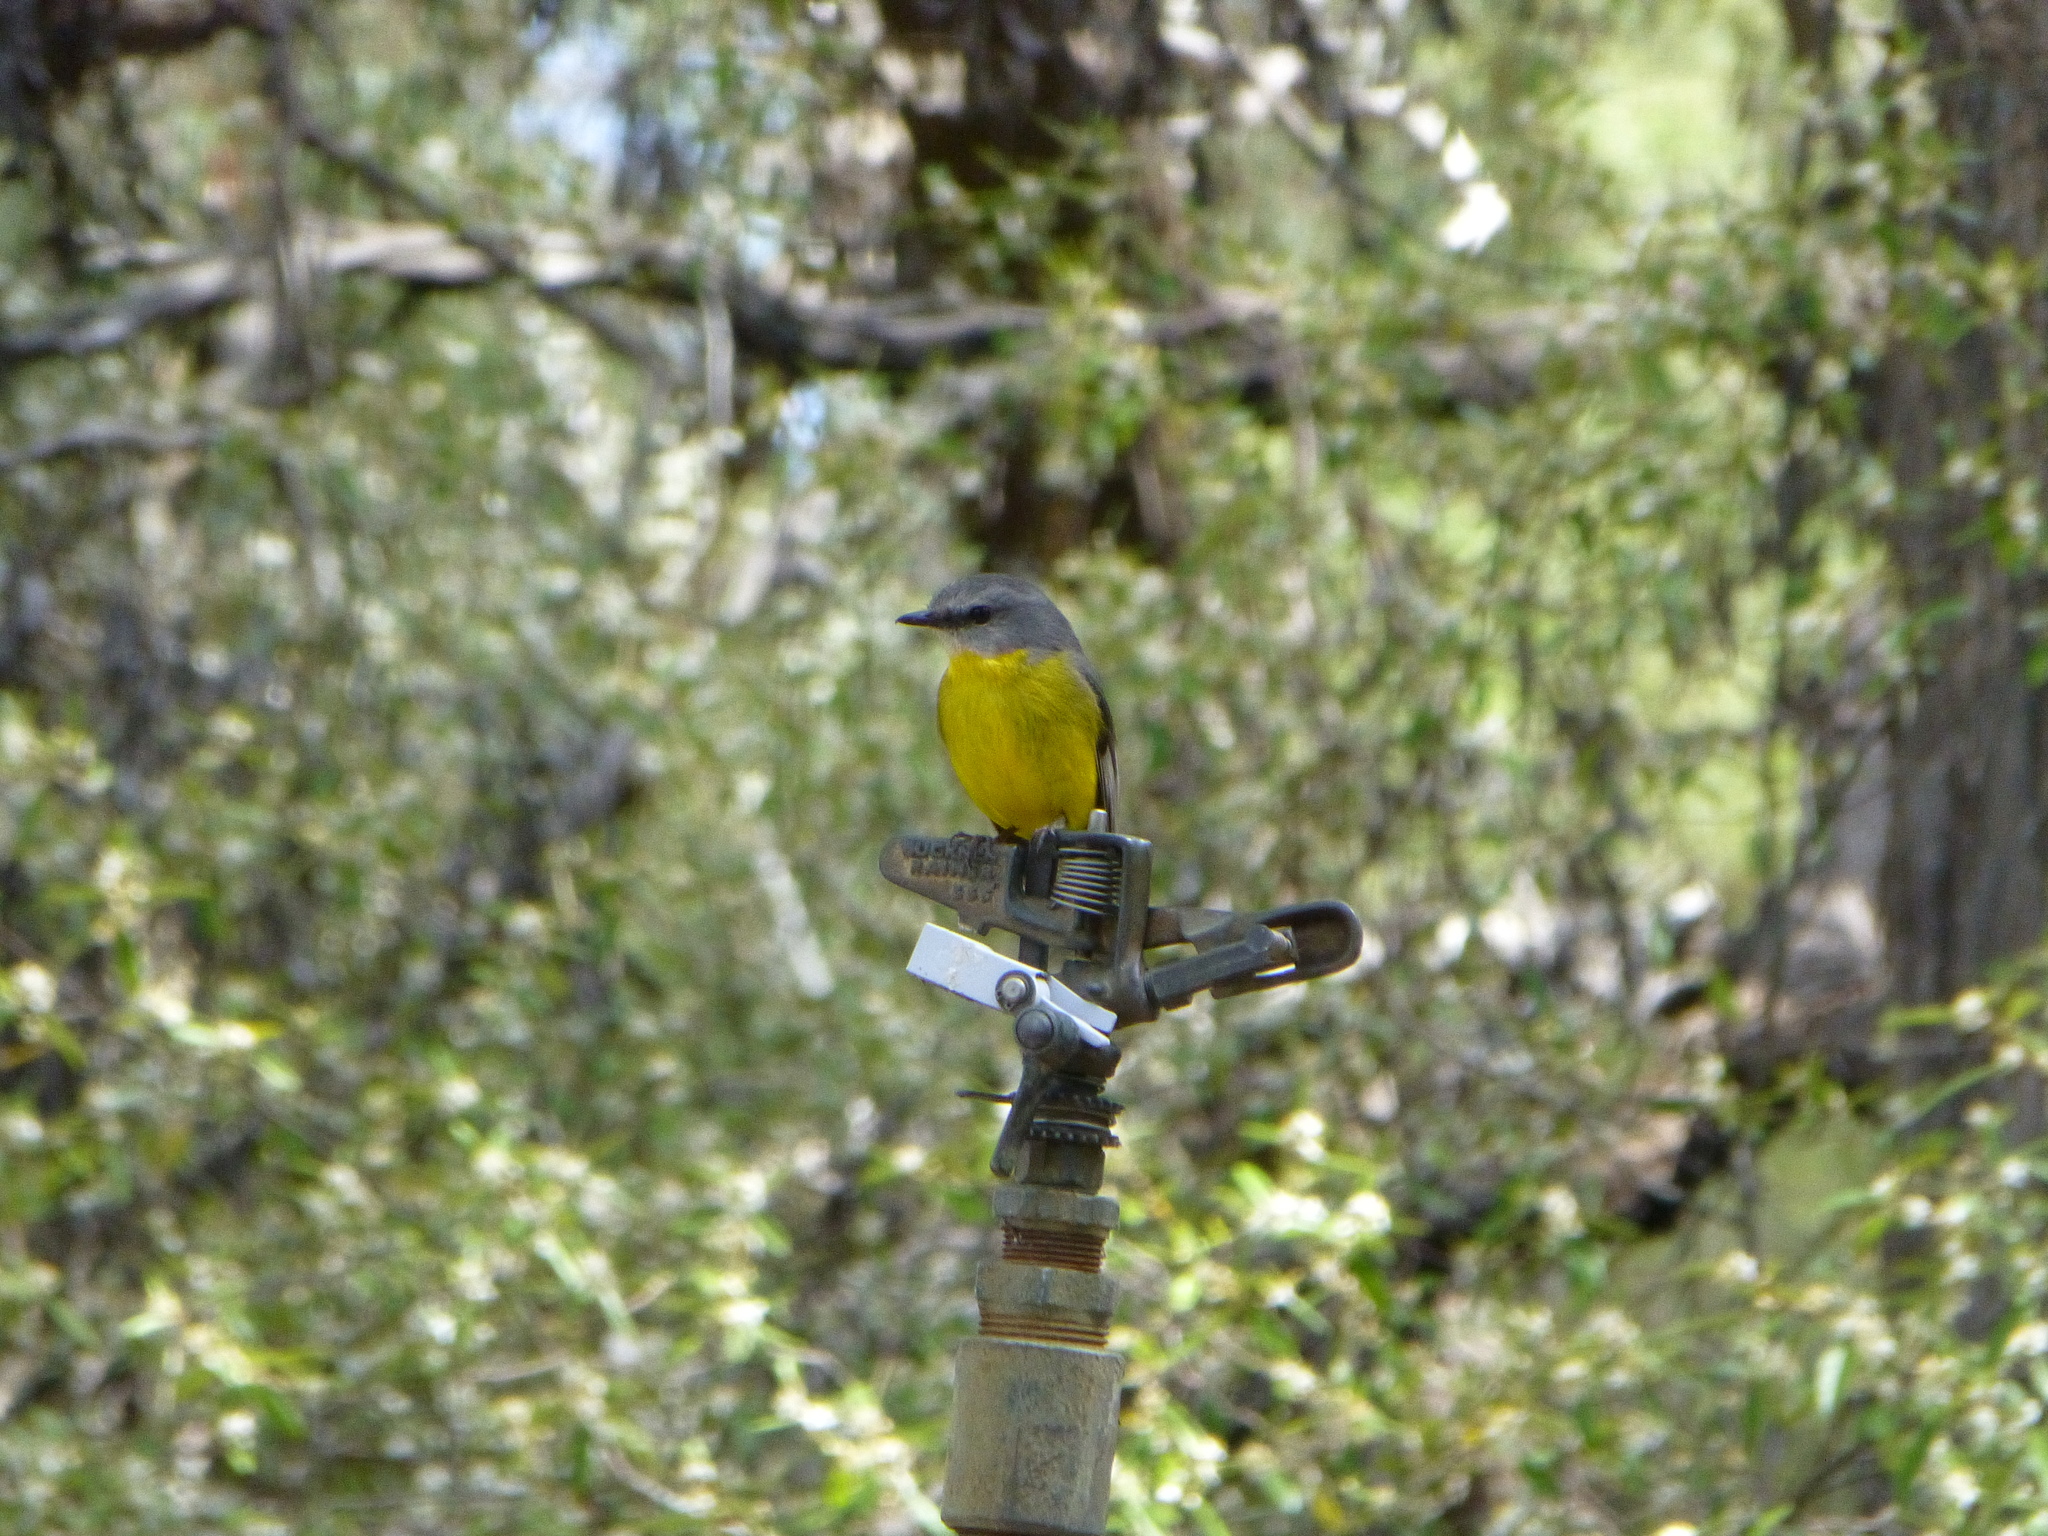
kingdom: Animalia
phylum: Chordata
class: Aves
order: Passeriformes
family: Petroicidae
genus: Eopsaltria
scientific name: Eopsaltria australis
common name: Eastern yellow robin
